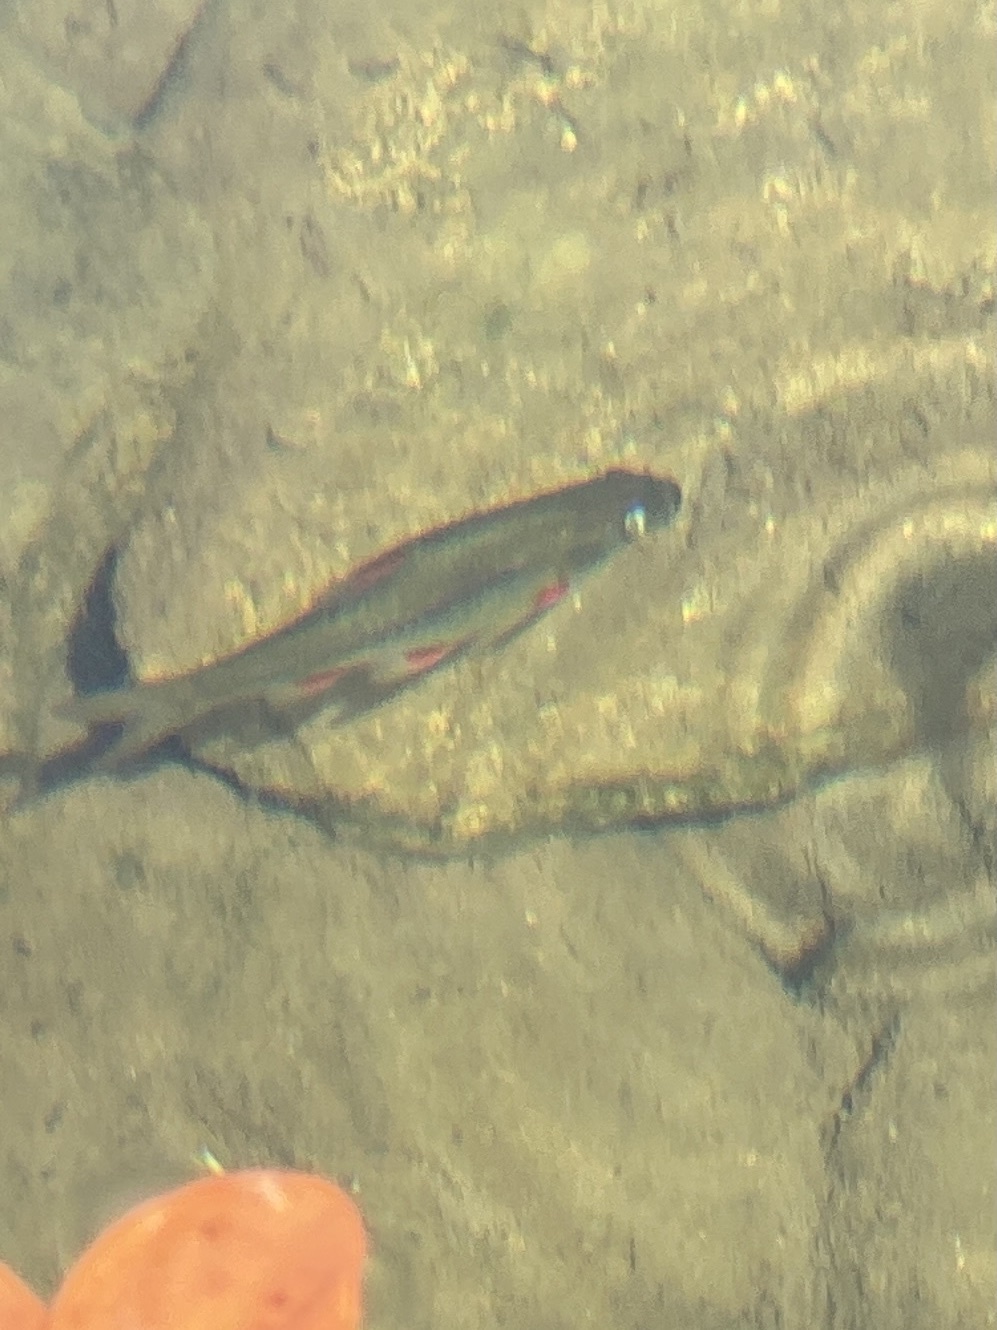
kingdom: Animalia
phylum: Chordata
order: Cypriniformes
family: Cyprinidae
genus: Pseudobarbus
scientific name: Pseudobarbus afer
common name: Eastern cape redfin
